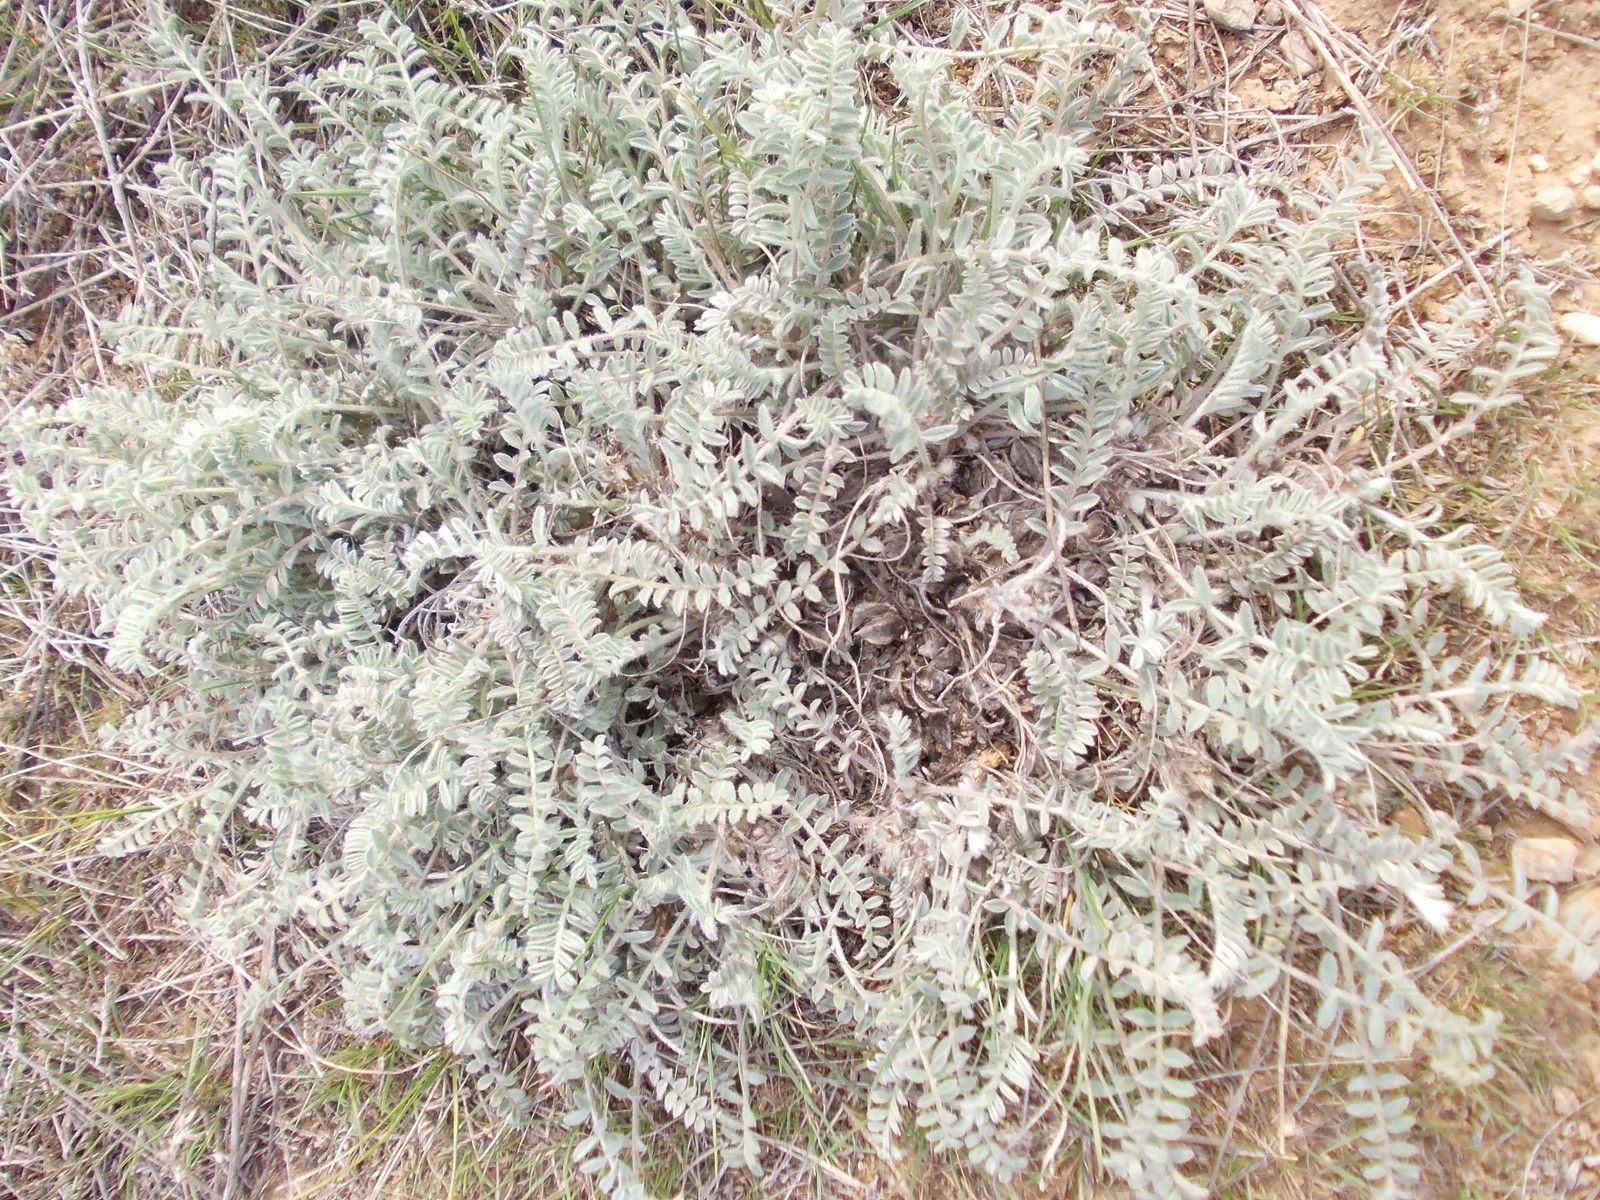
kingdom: Plantae
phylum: Tracheophyta
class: Magnoliopsida
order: Fabales
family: Fabaceae
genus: Astragalus
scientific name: Astragalus dolichophyllus
